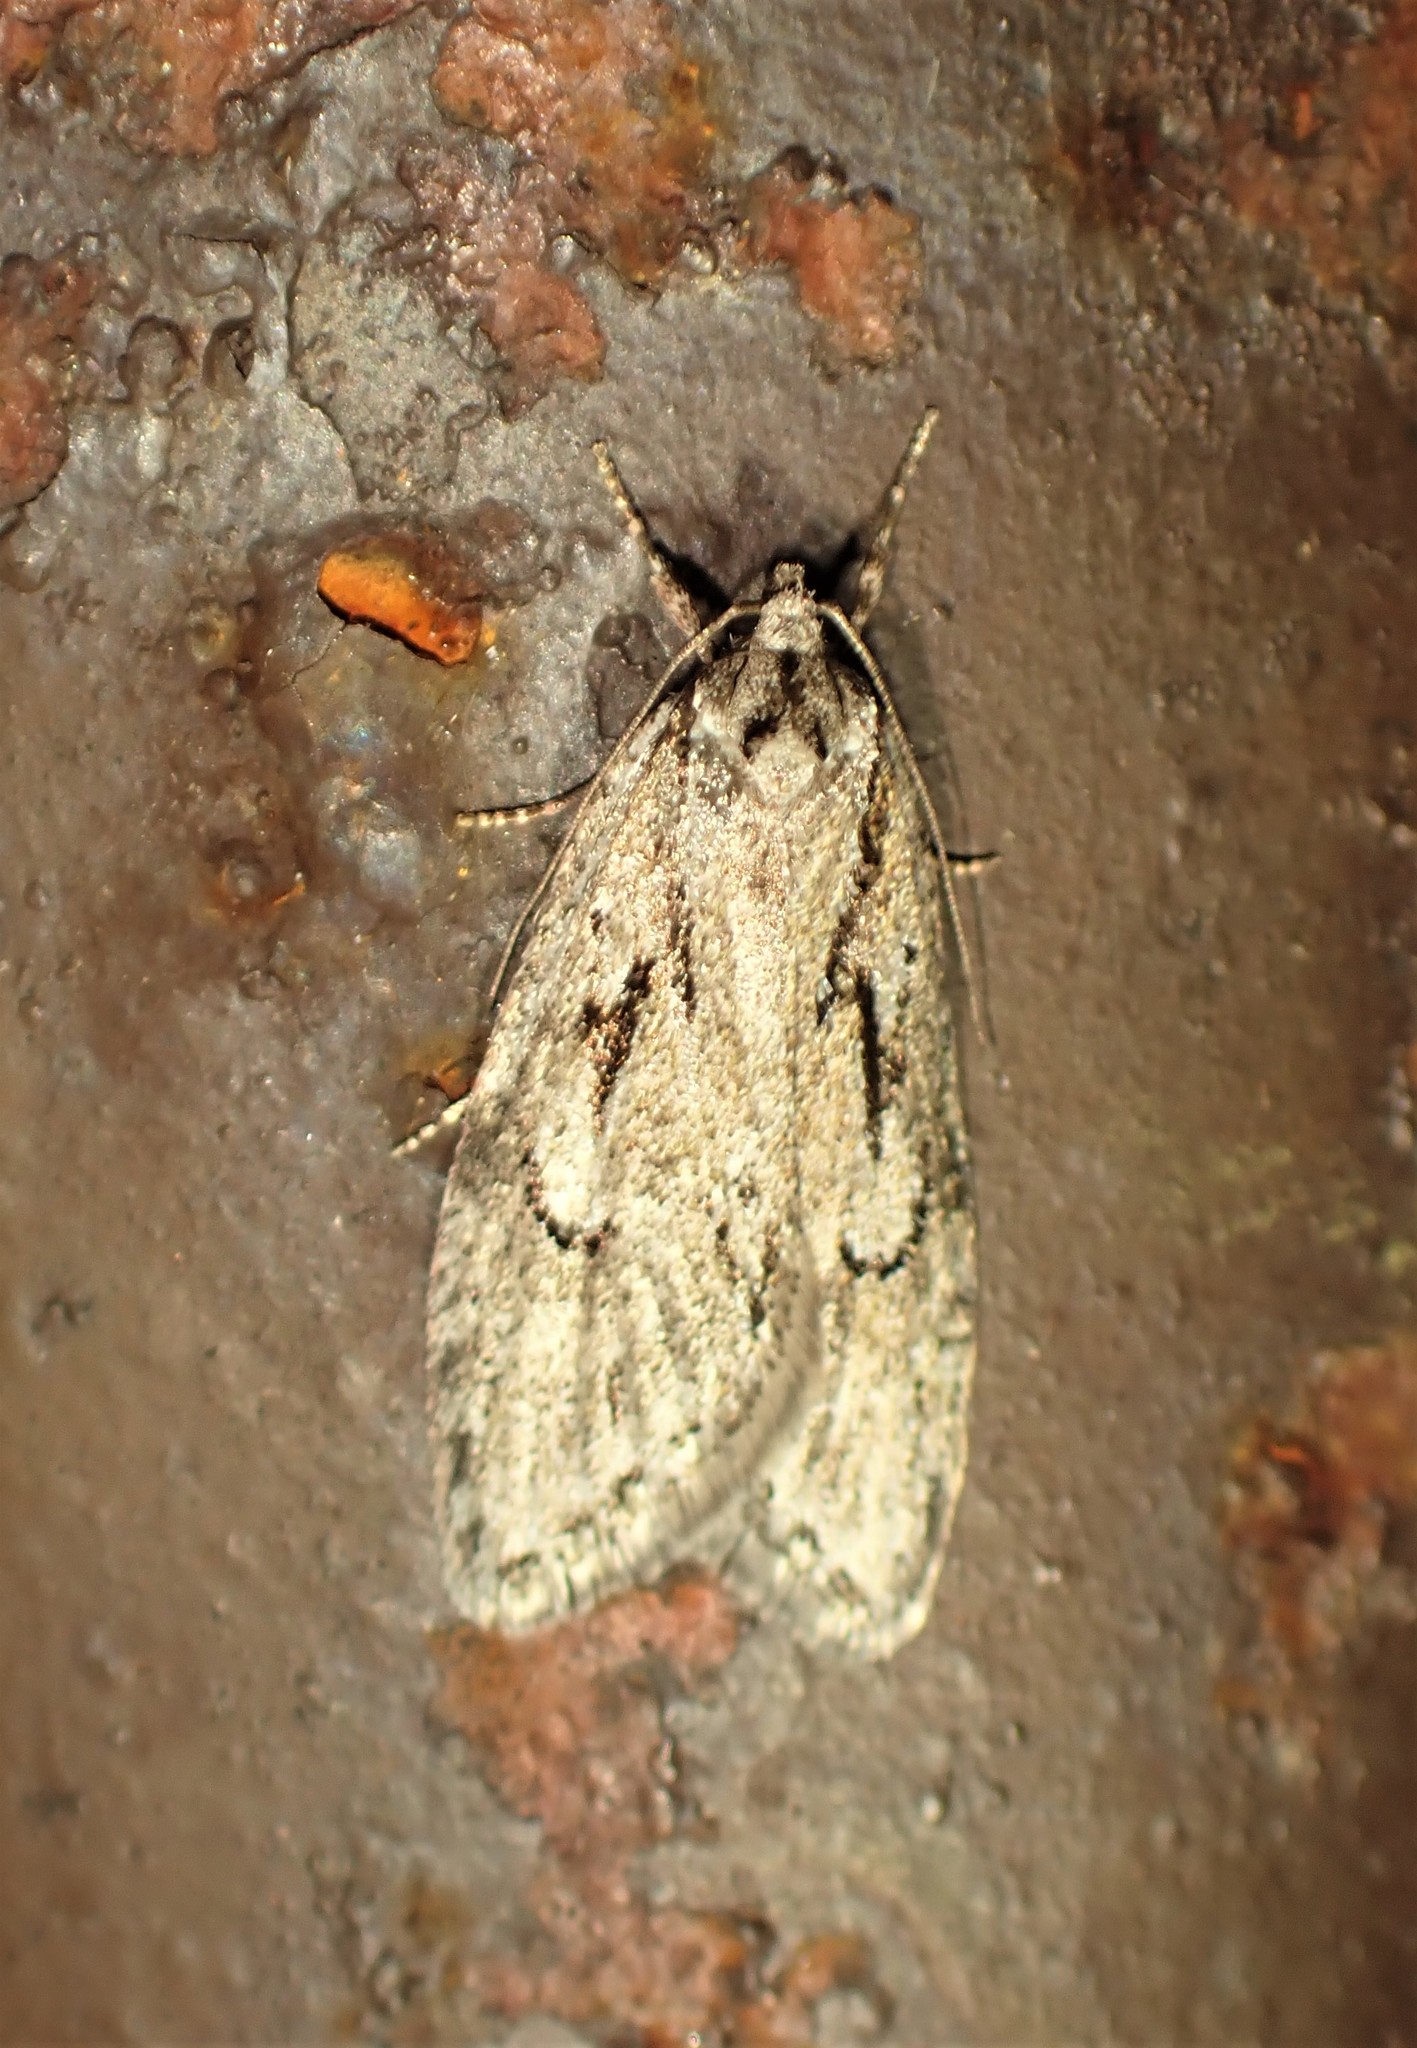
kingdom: Animalia
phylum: Arthropoda
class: Insecta
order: Lepidoptera
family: Depressariidae
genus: Semioscopis
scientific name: Semioscopis aurorella
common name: Aurora flatbody moth
